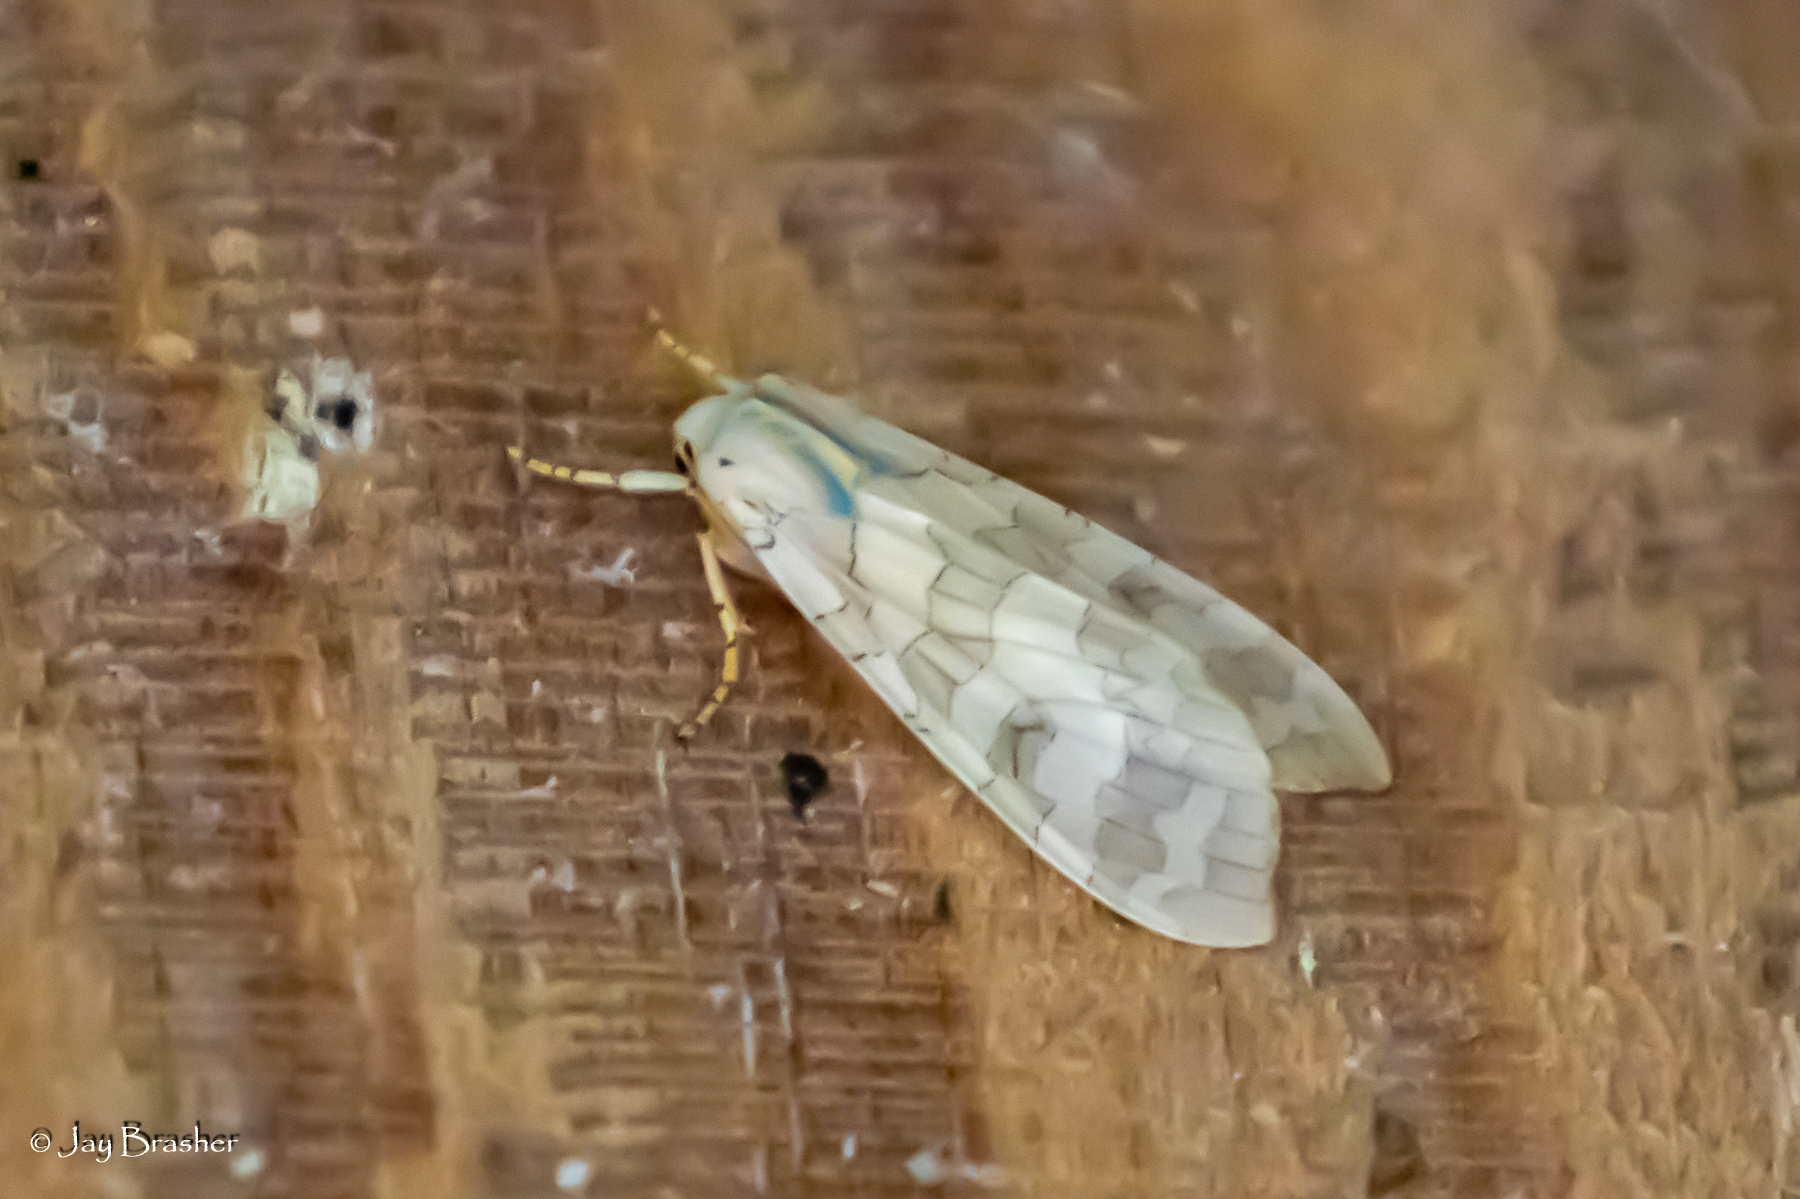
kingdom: Animalia
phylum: Arthropoda
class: Insecta
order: Lepidoptera
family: Erebidae
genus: Halysidota
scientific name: Halysidota
